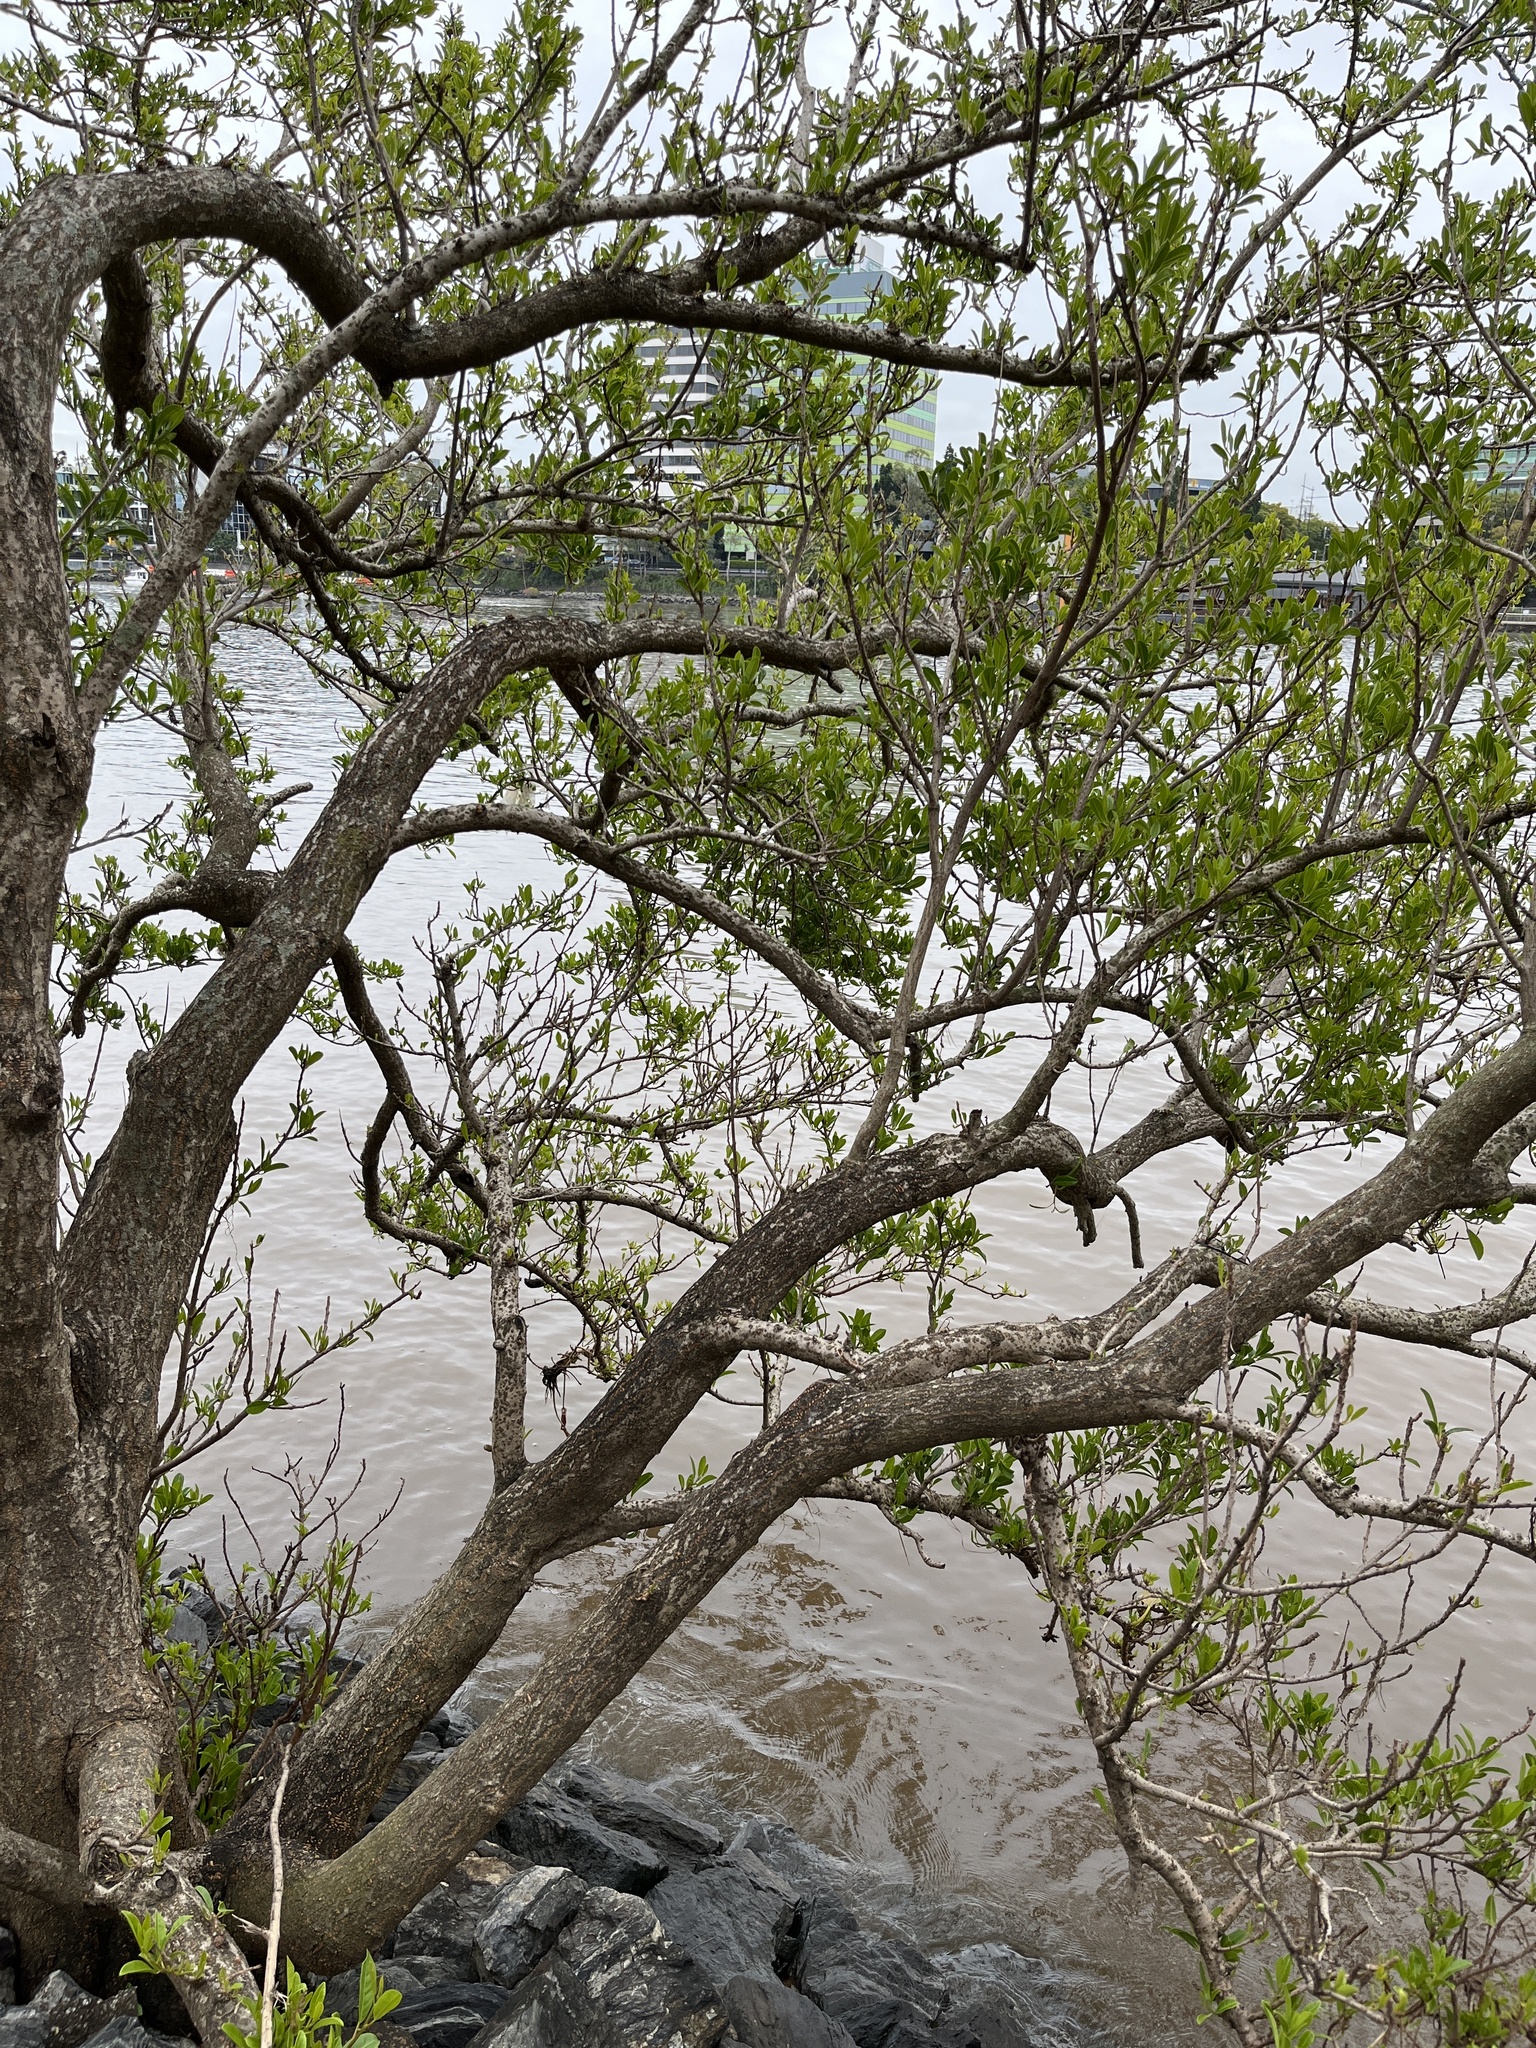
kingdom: Plantae
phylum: Tracheophyta
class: Magnoliopsida
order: Malpighiales
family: Euphorbiaceae
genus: Excoecaria
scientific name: Excoecaria agallocha
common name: River poisontree
